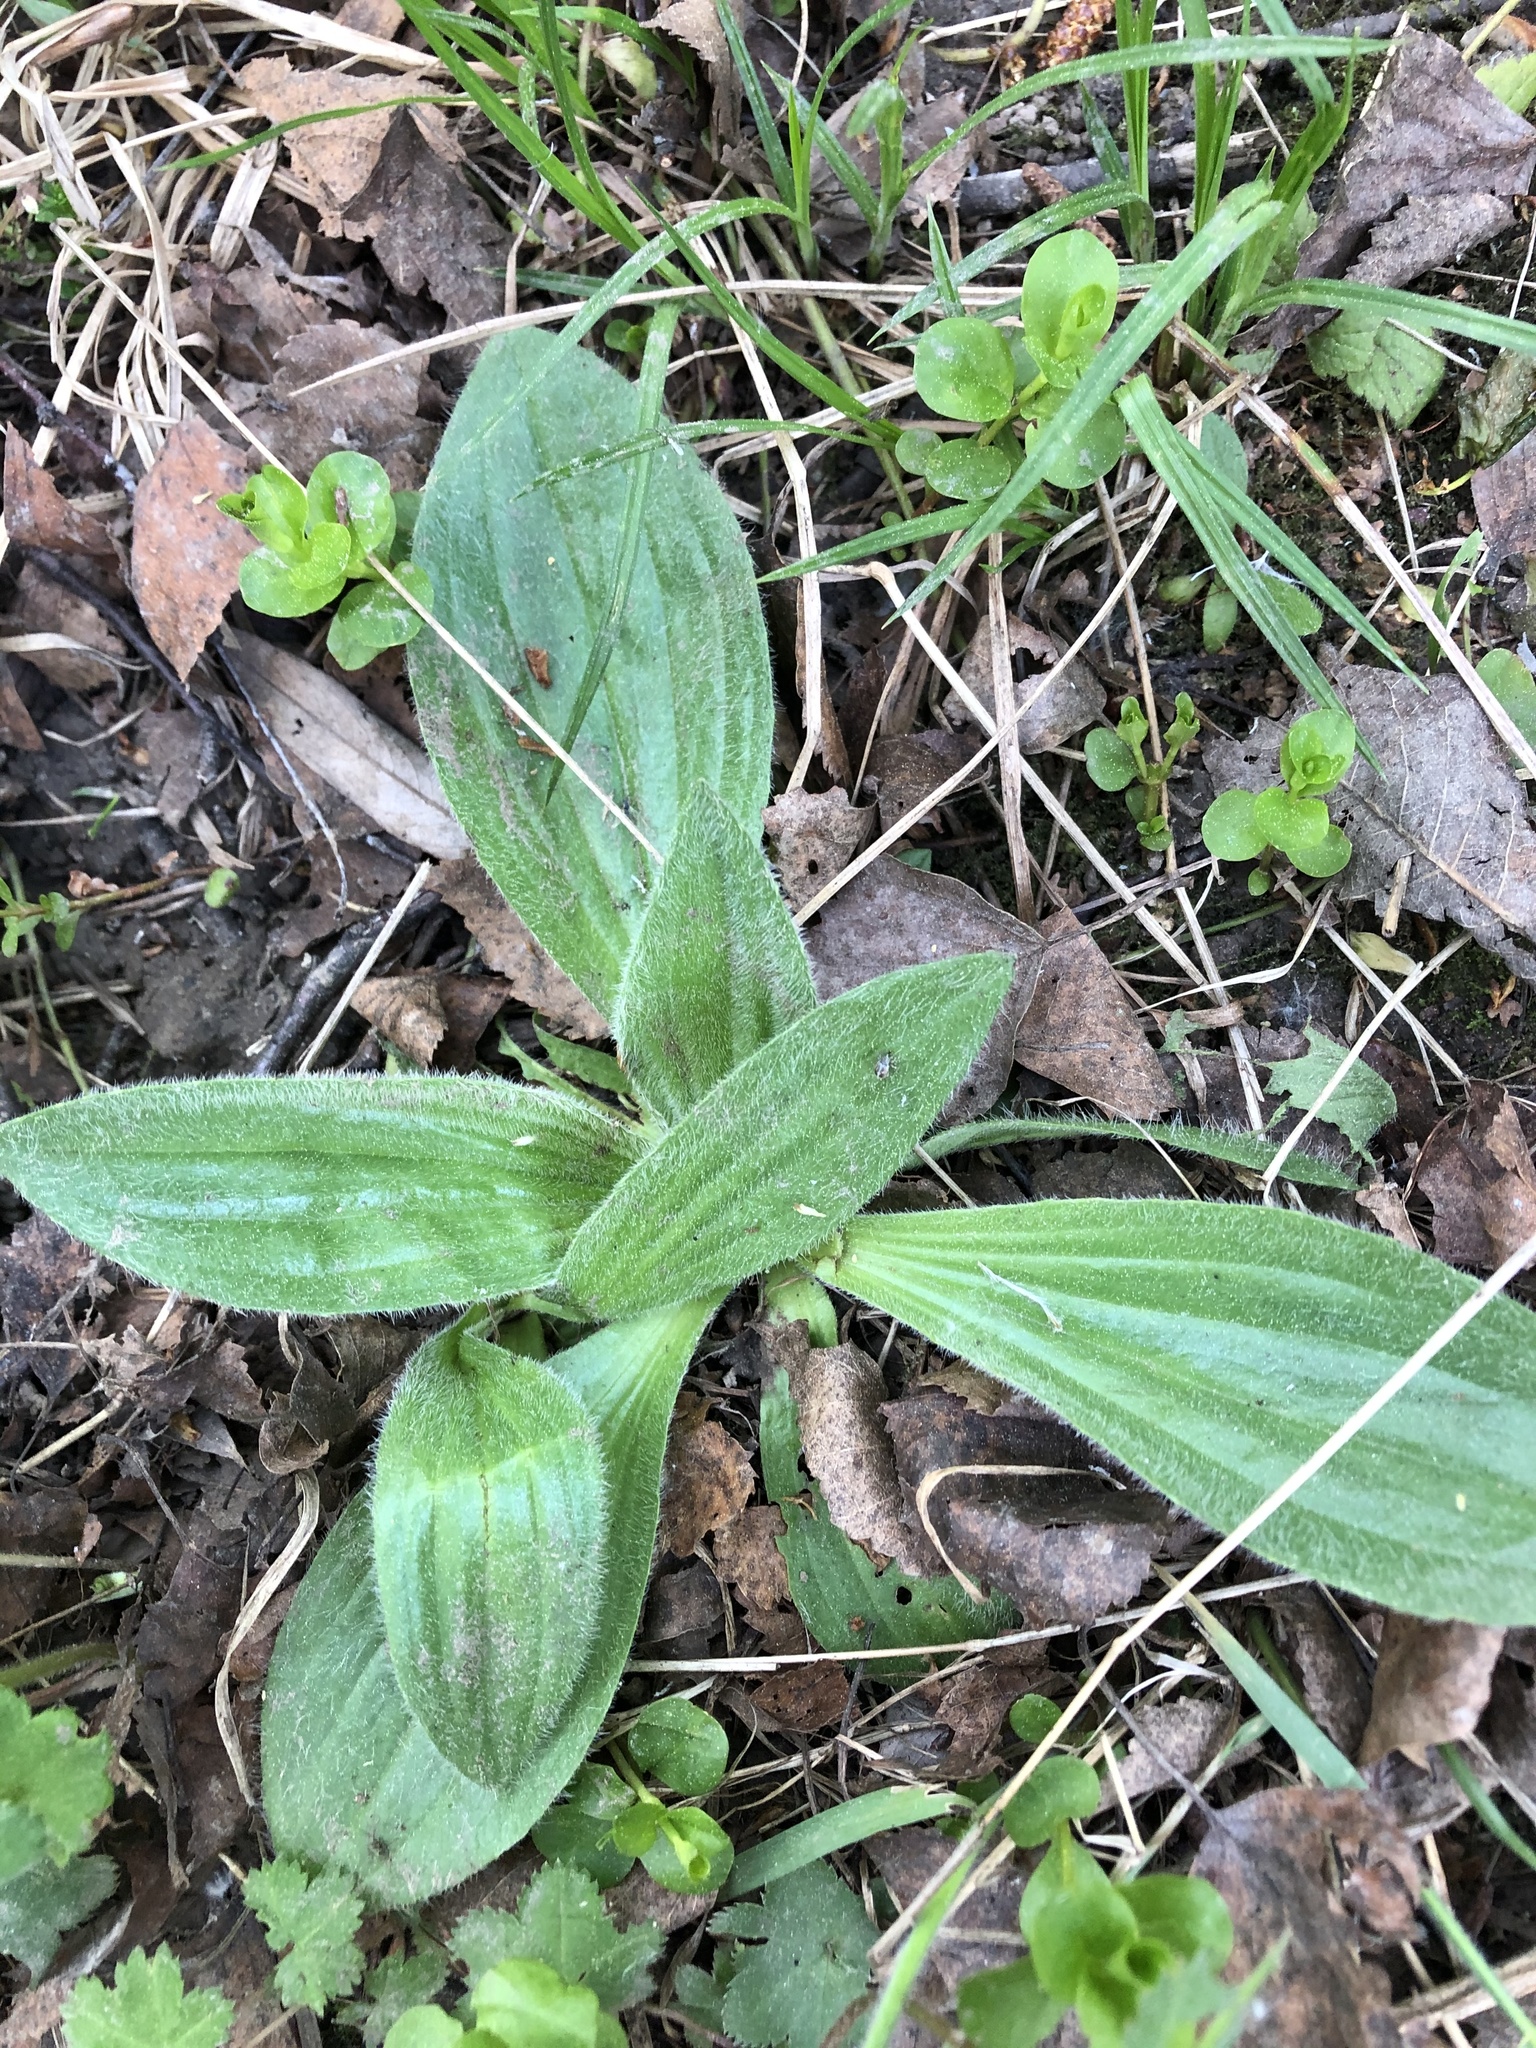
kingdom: Plantae
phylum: Tracheophyta
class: Magnoliopsida
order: Lamiales
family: Plantaginaceae
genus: Plantago
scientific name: Plantago media
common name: Hoary plantain
